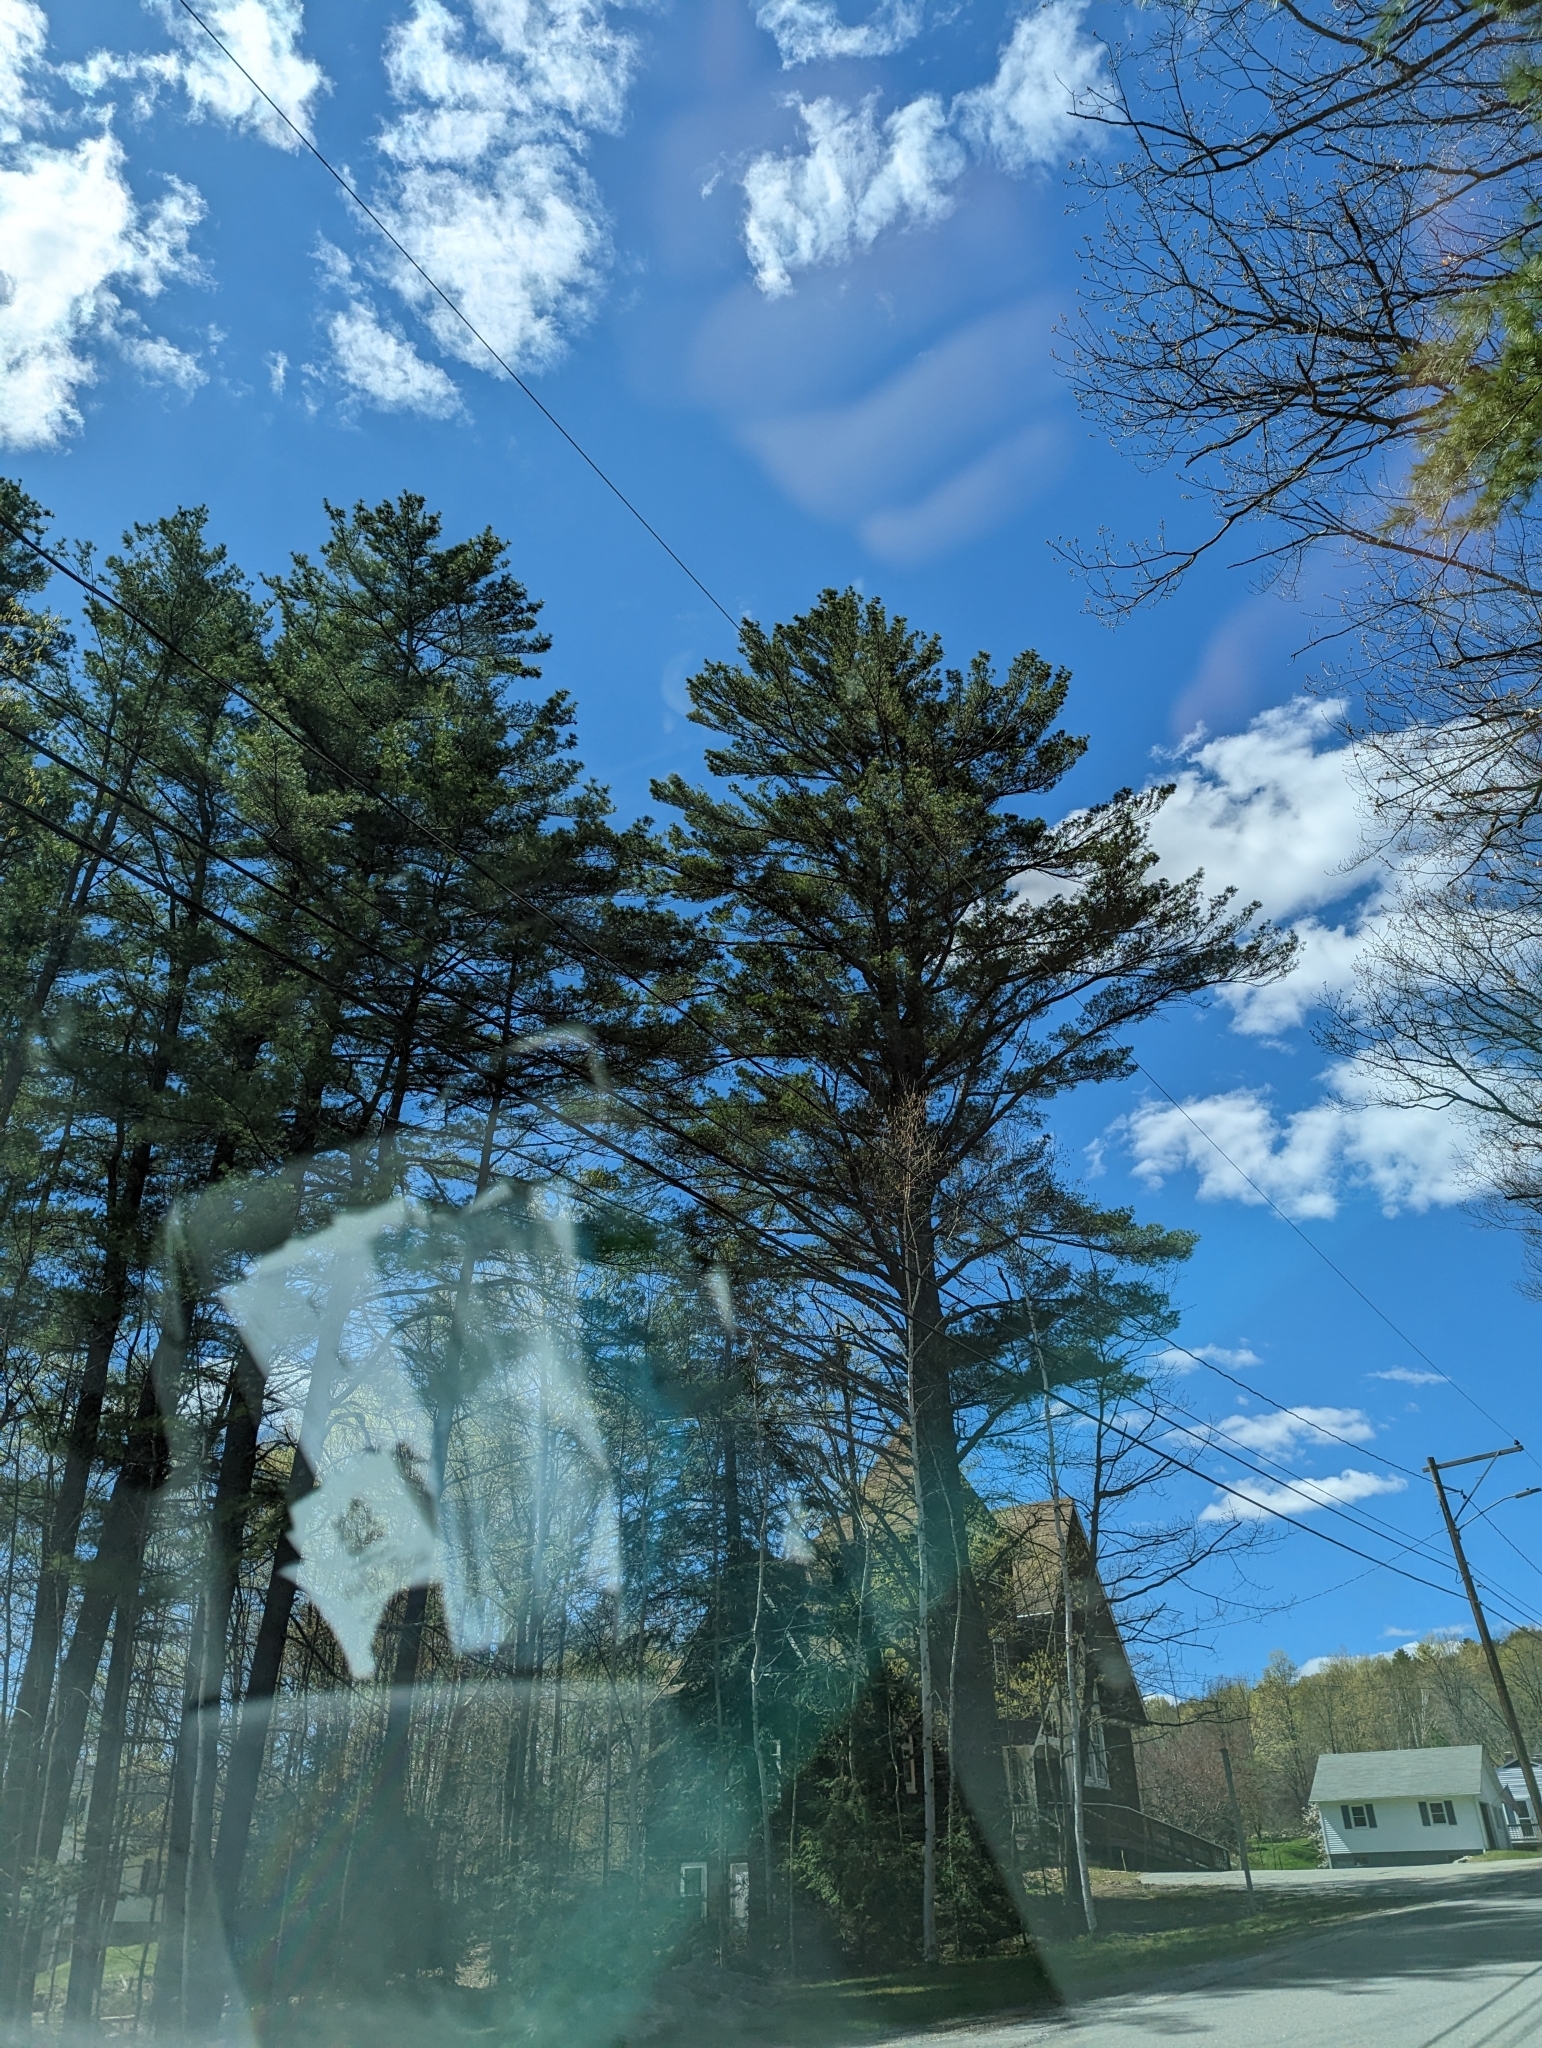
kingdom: Plantae
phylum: Tracheophyta
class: Pinopsida
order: Pinales
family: Pinaceae
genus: Pinus
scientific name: Pinus strobus
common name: Weymouth pine
